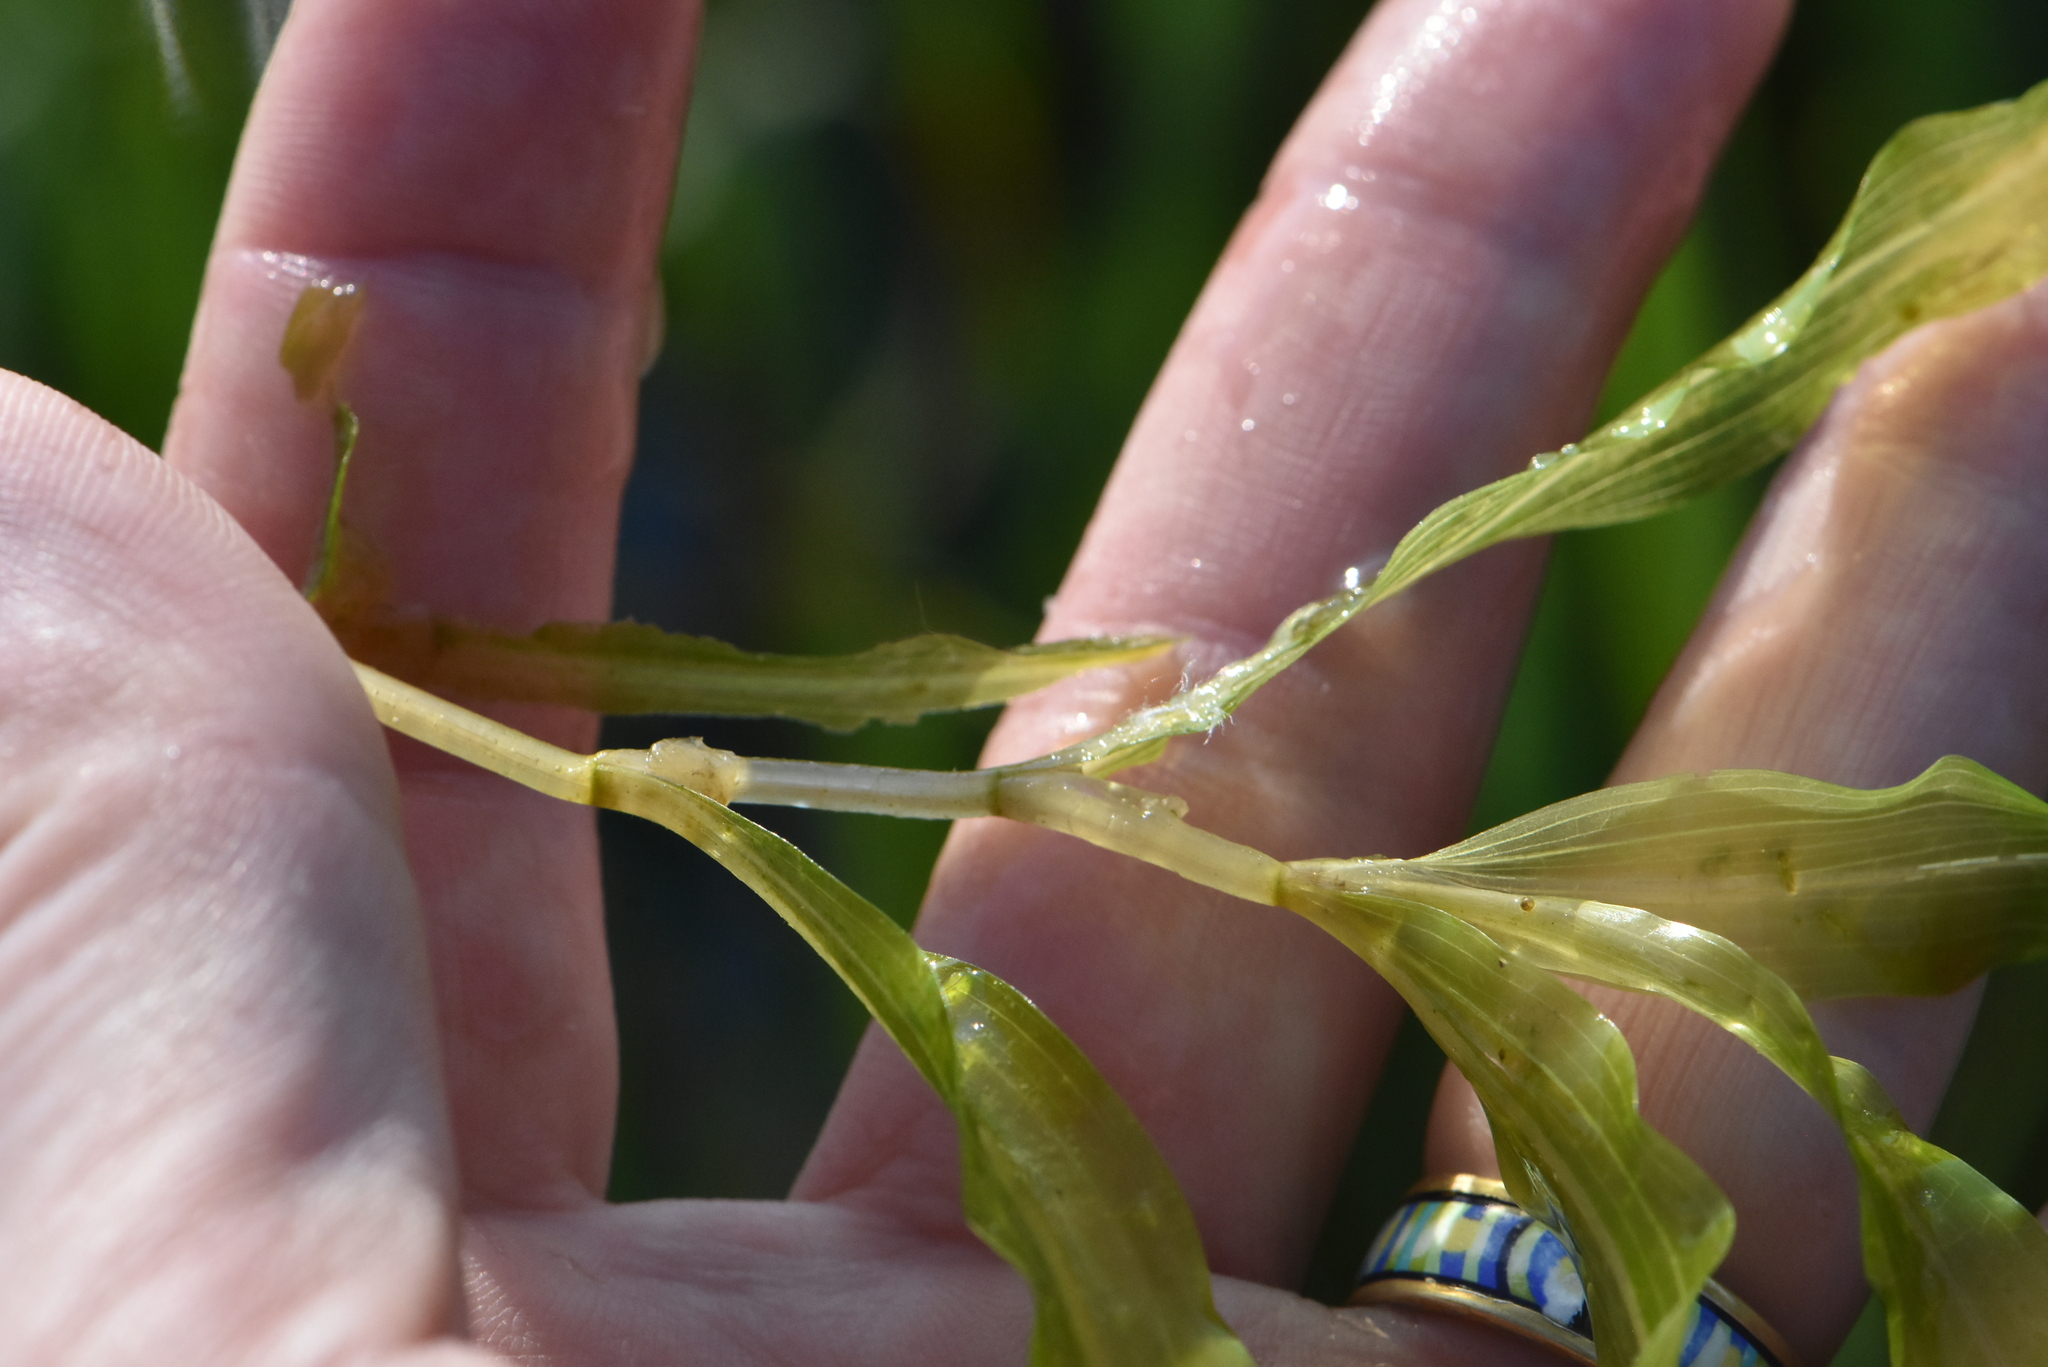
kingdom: Plantae
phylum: Tracheophyta
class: Liliopsida
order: Alismatales
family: Potamogetonaceae
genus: Potamogeton
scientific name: Potamogeton praelongus
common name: Long-stalked pondweed
